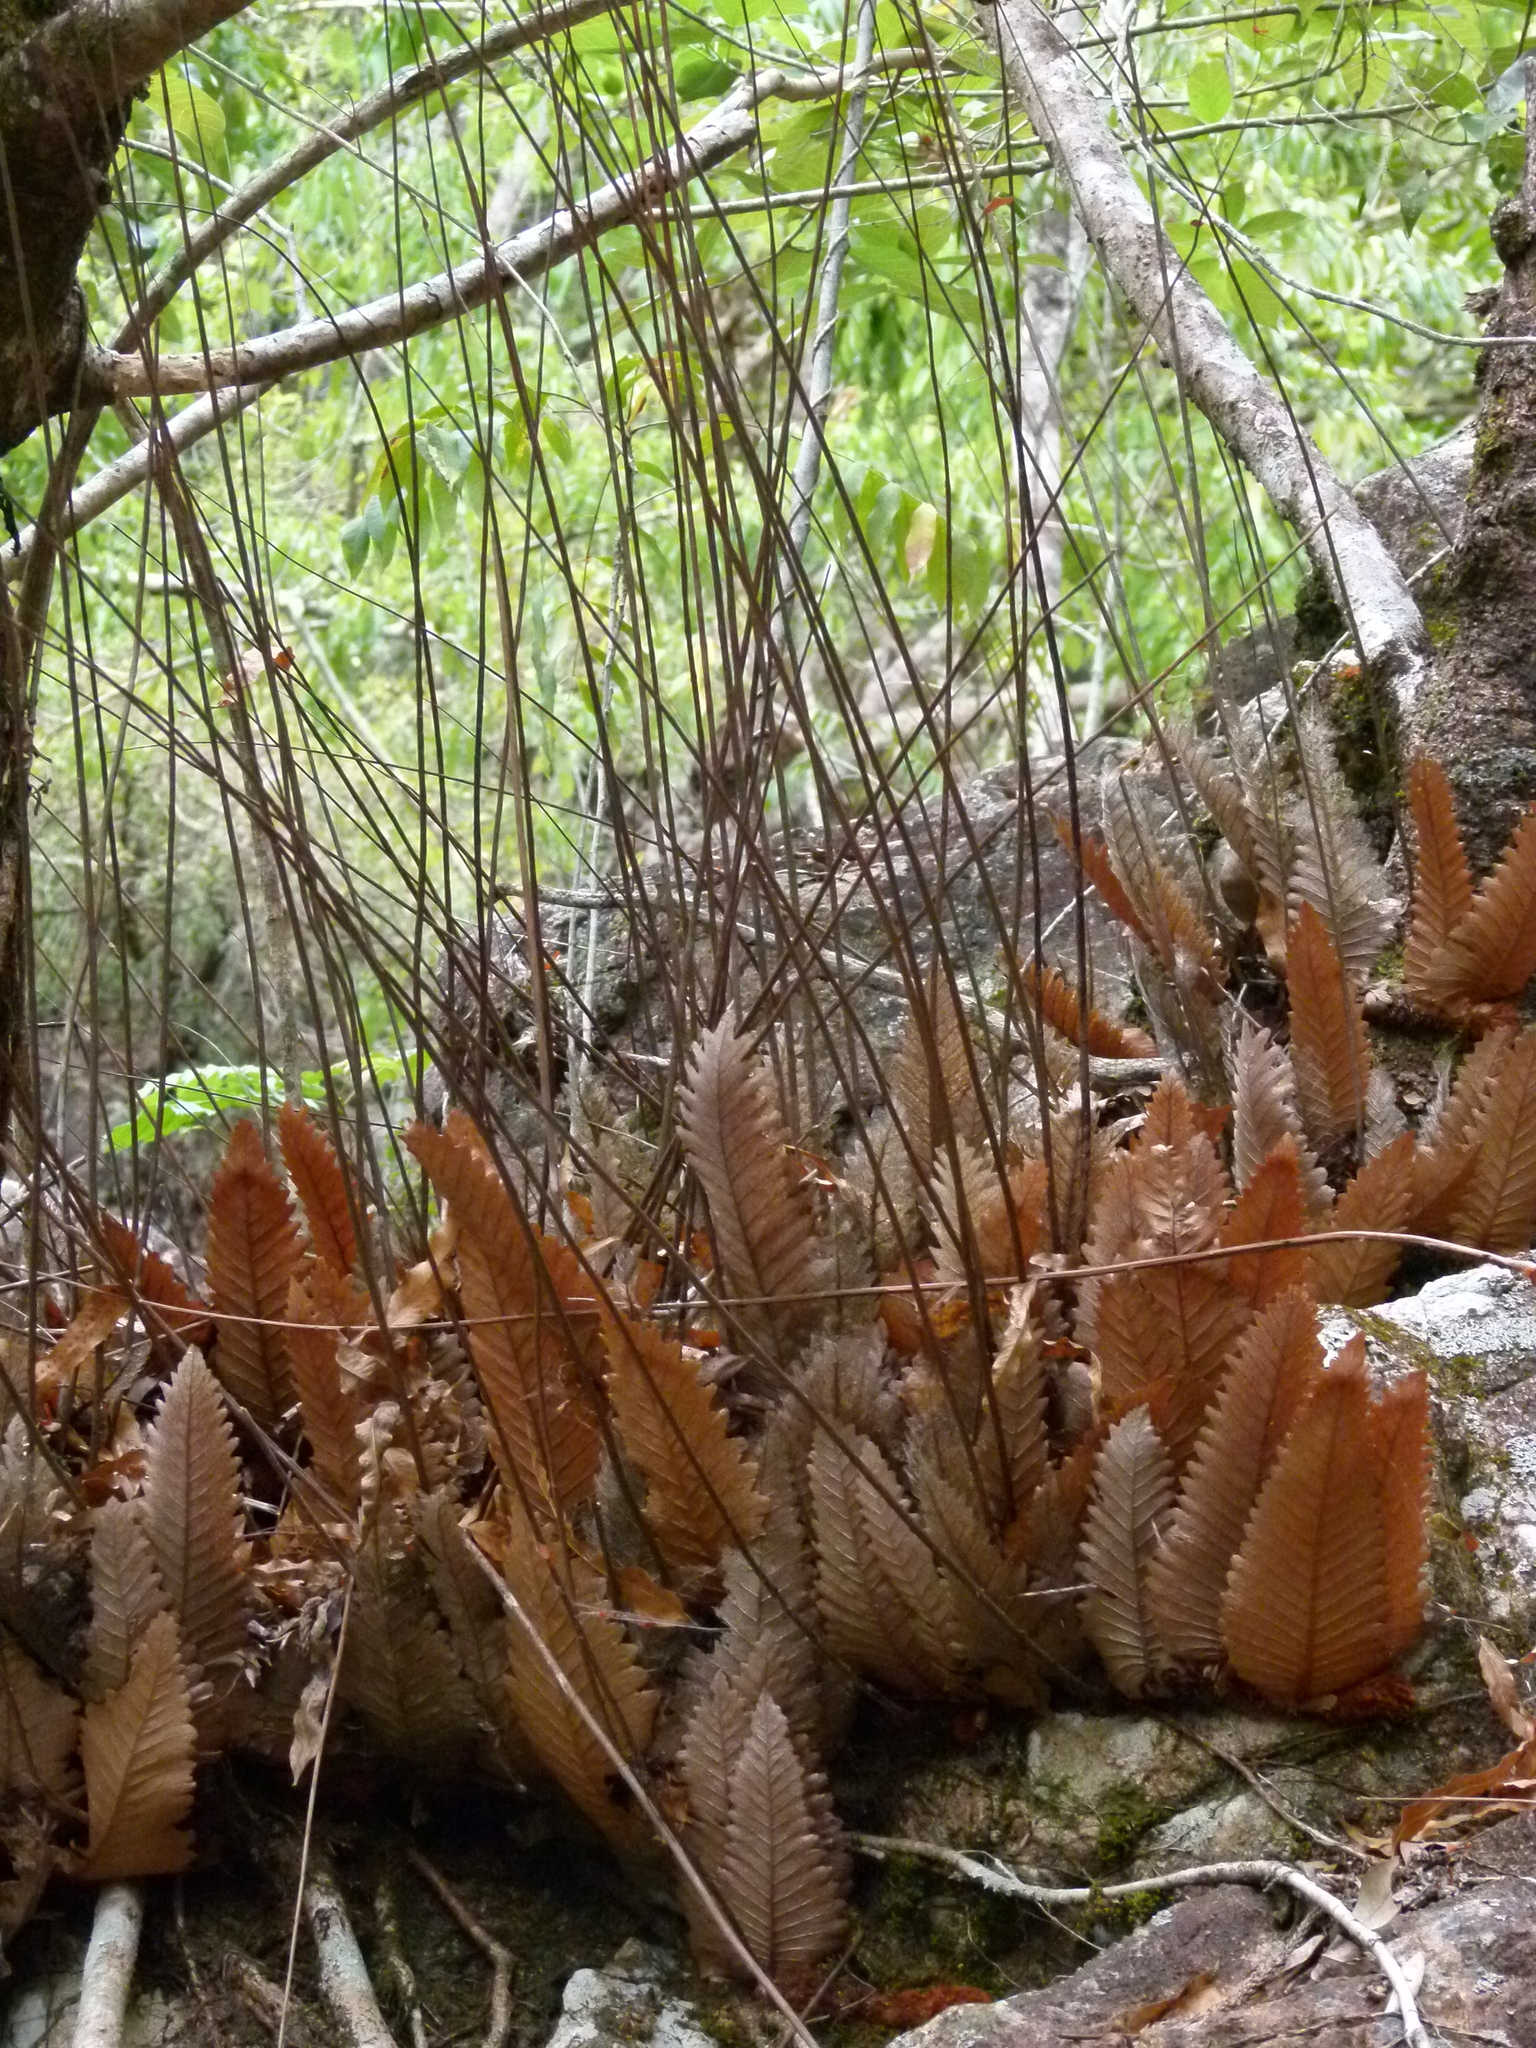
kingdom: Plantae
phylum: Tracheophyta
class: Polypodiopsida
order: Polypodiales
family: Polypodiaceae
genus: Drynaria
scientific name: Drynaria rigidula
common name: Basket fern
